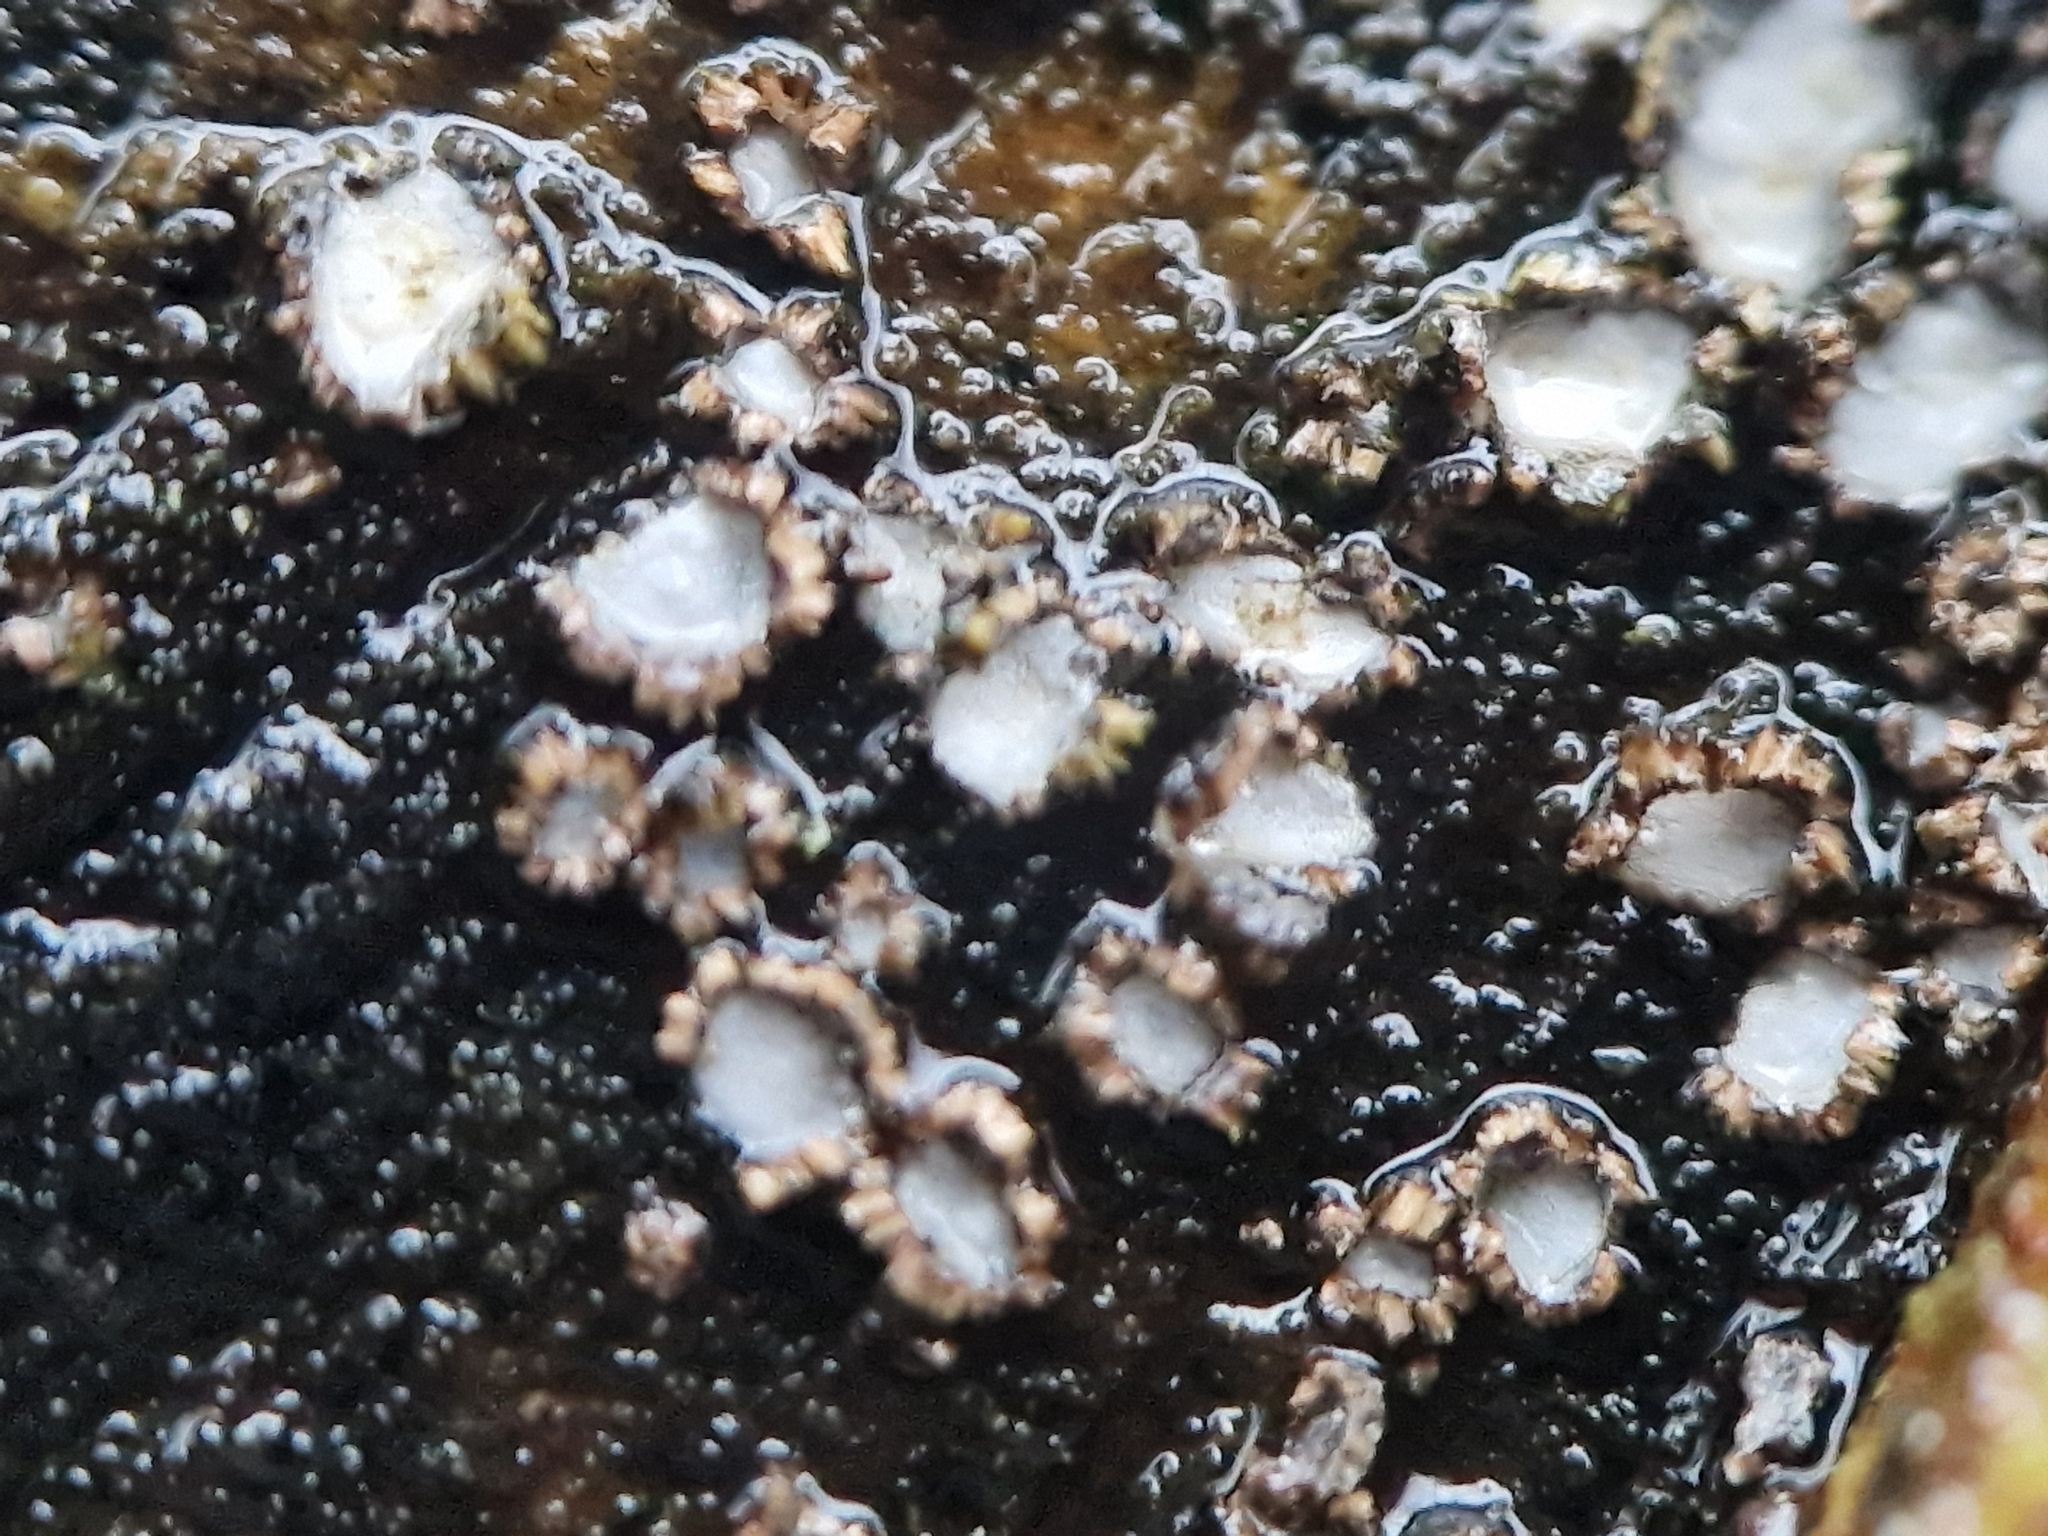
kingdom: Fungi
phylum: Ascomycota
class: Leotiomycetes
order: Chaetomellales
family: Marthamycetaceae
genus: Propolis
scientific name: Propolis farinosa
